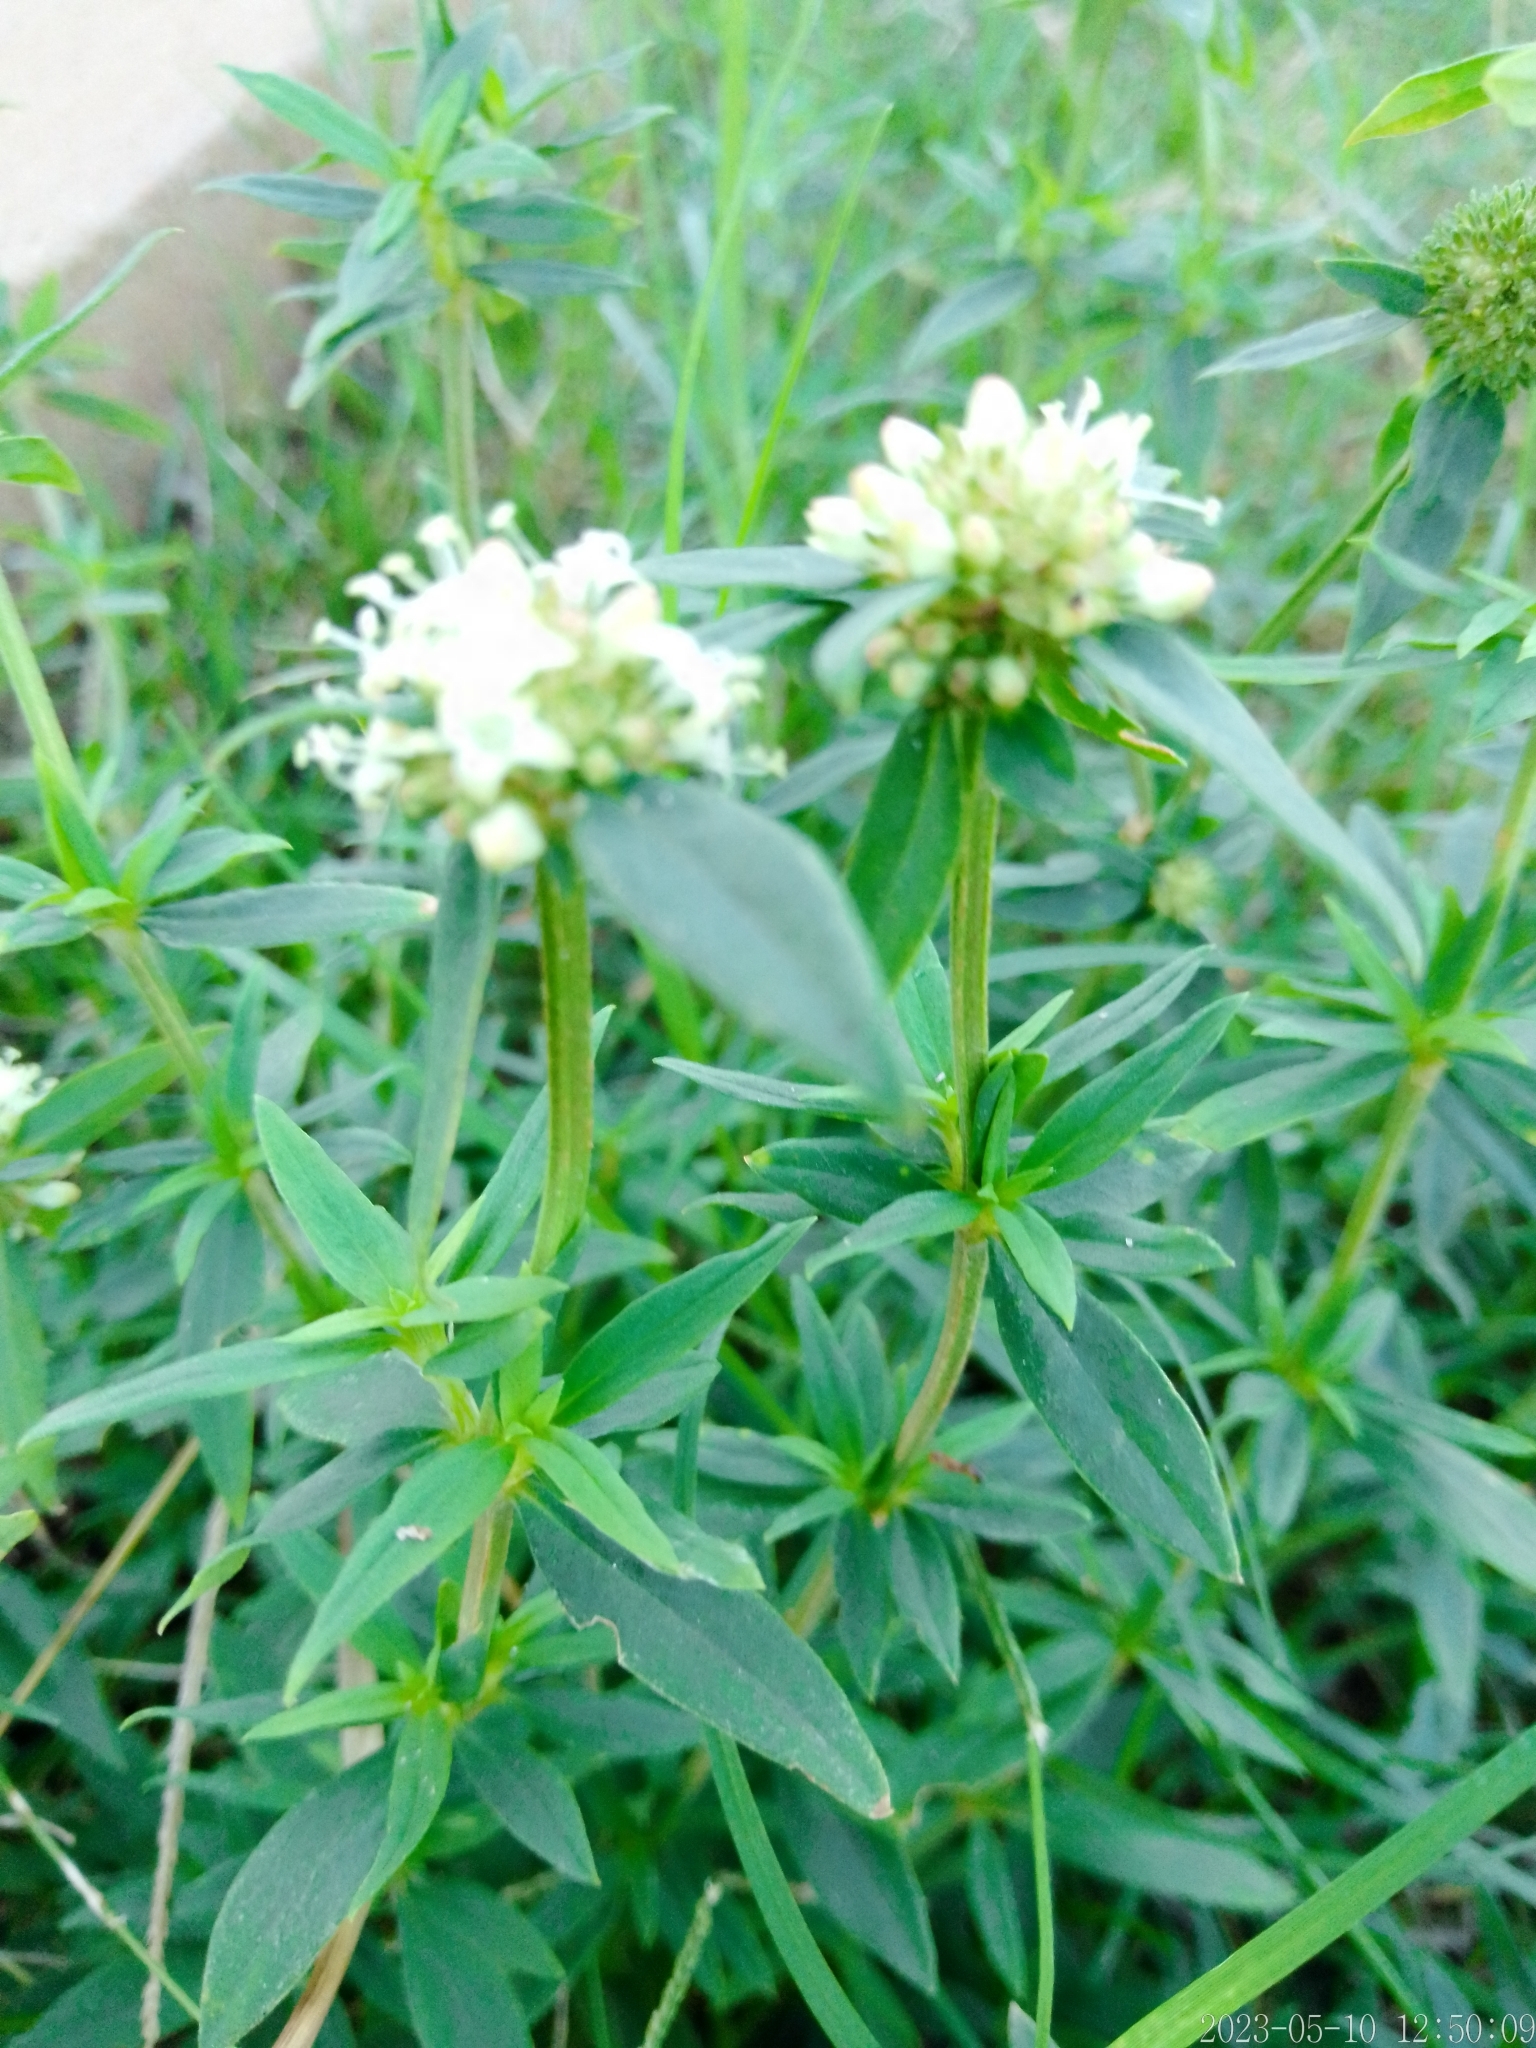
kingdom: Plantae
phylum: Tracheophyta
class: Magnoliopsida
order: Gentianales
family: Rubiaceae
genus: Spermacoce
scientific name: Spermacoce verticillata
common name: Shrubby false buttonweed
